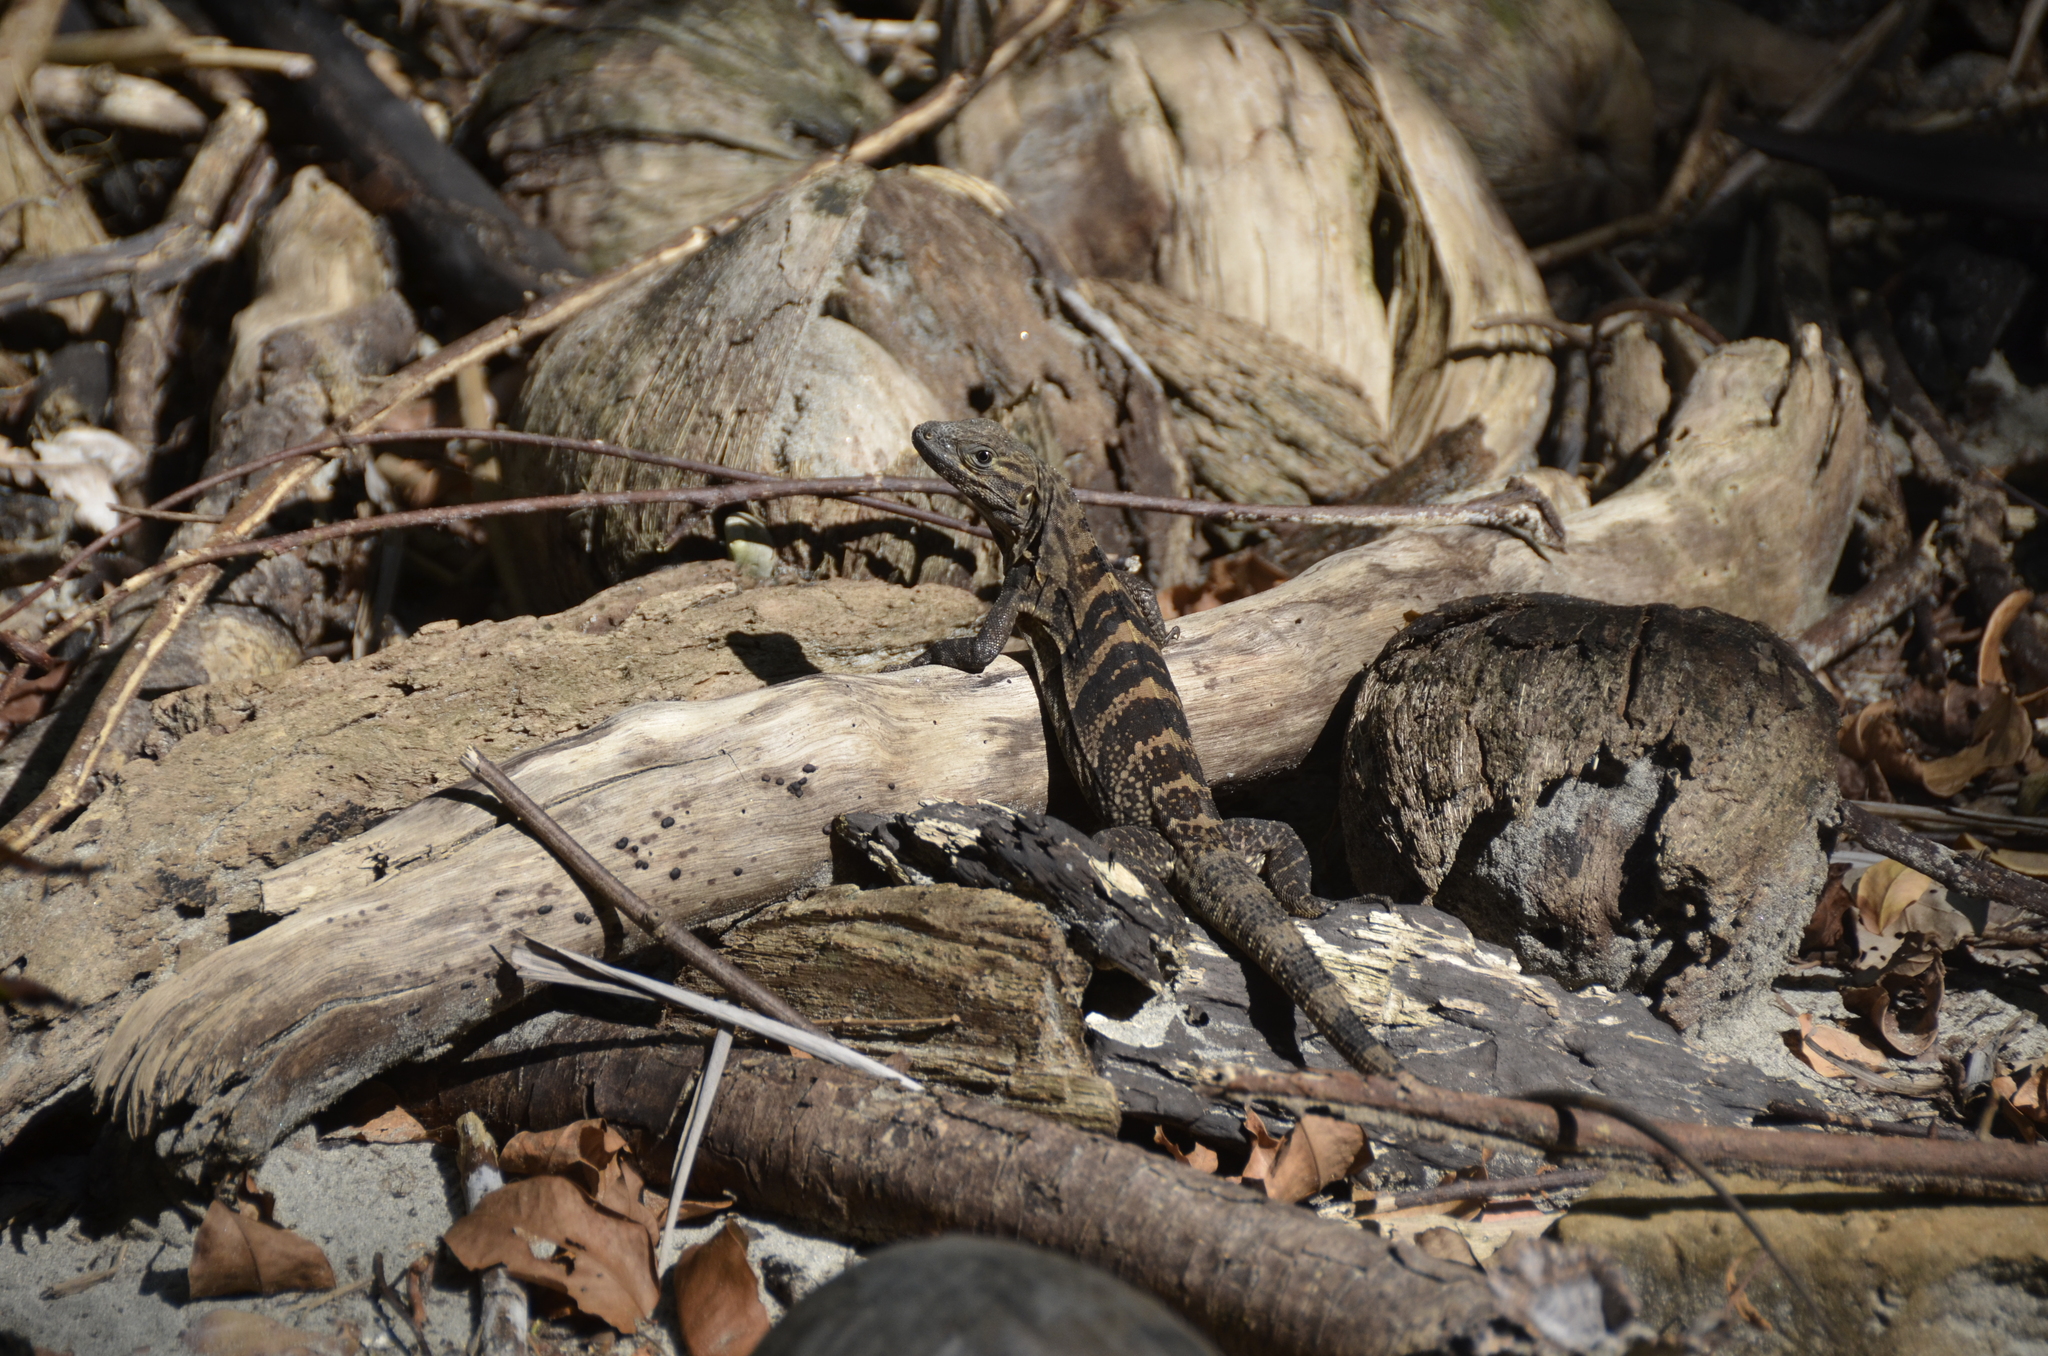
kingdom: Animalia
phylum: Chordata
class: Squamata
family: Iguanidae
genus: Ctenosaura
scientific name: Ctenosaura similis
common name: Black spiny-tailed iguana
